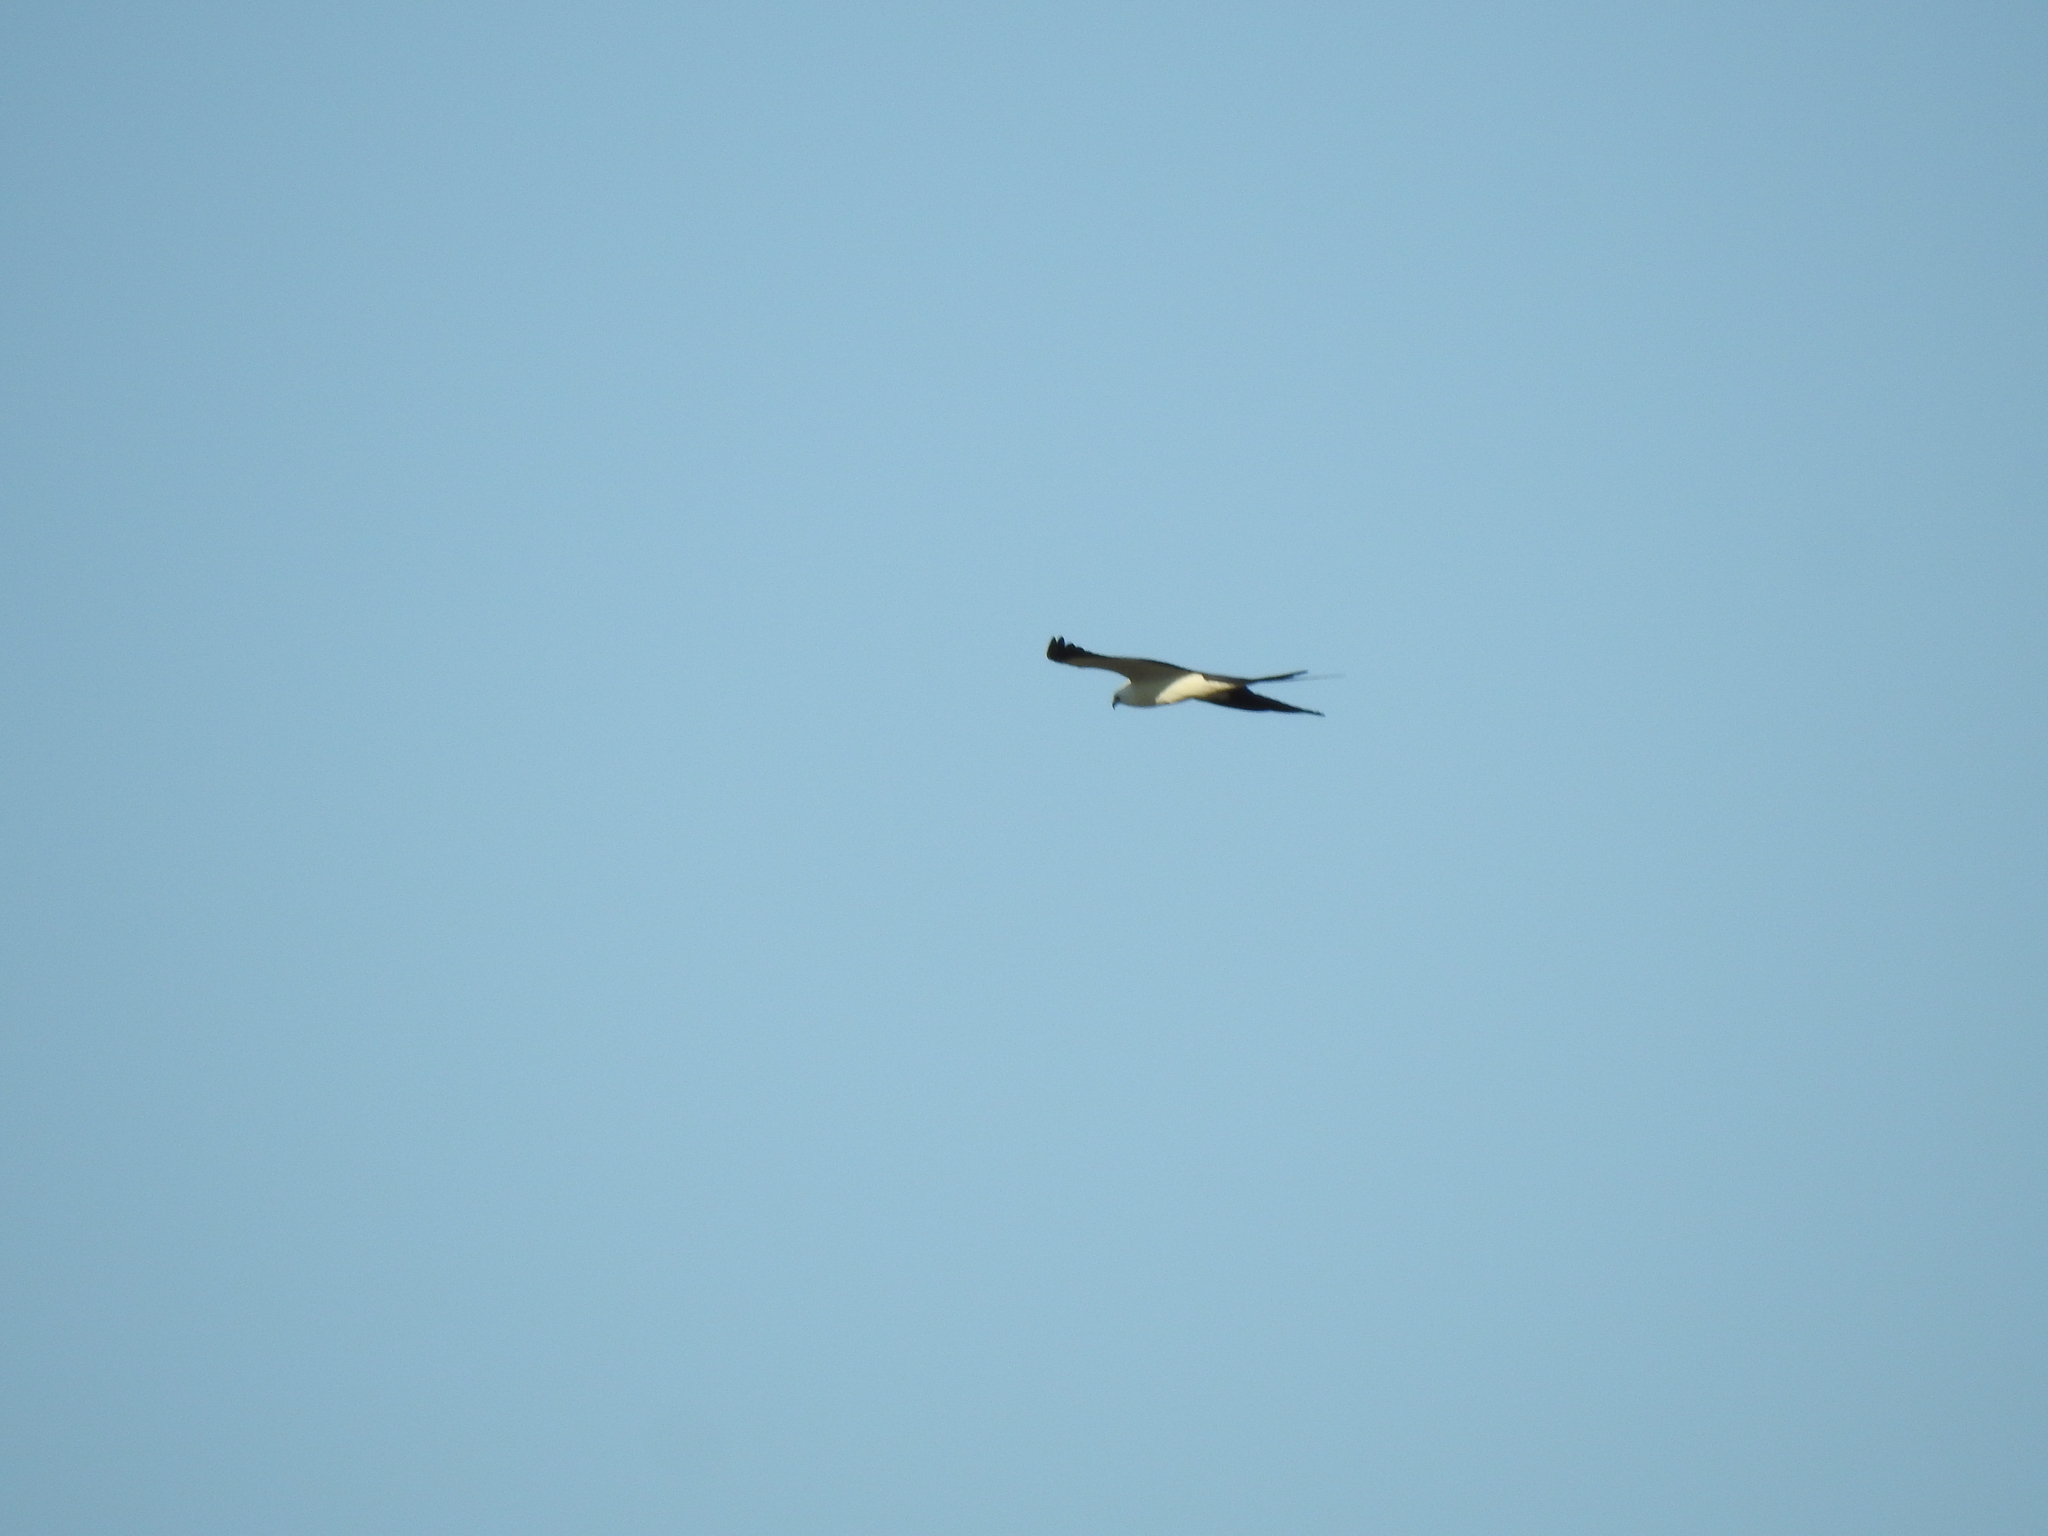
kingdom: Animalia
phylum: Chordata
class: Aves
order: Accipitriformes
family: Accipitridae
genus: Elanoides
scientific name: Elanoides forficatus
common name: Swallow-tailed kite
